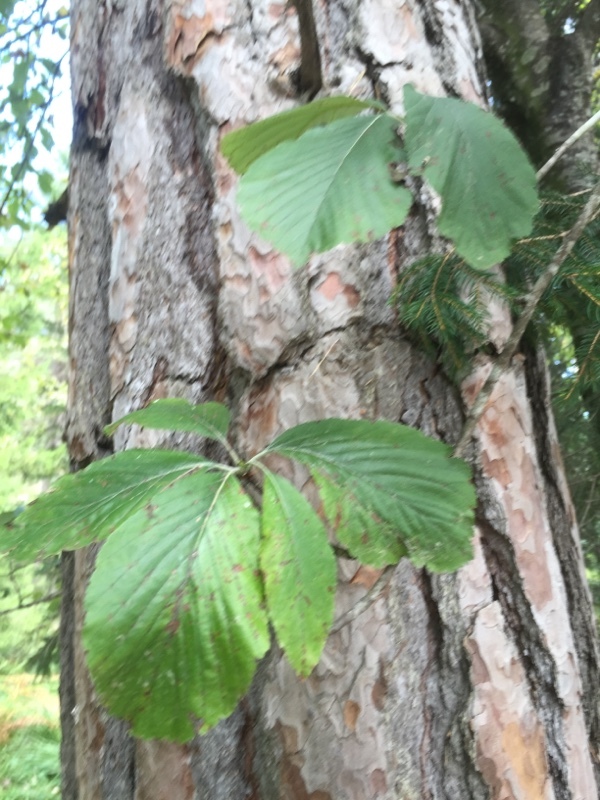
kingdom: Plantae
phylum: Tracheophyta
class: Magnoliopsida
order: Rosales
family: Rosaceae
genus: Aria
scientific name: Aria edulis
